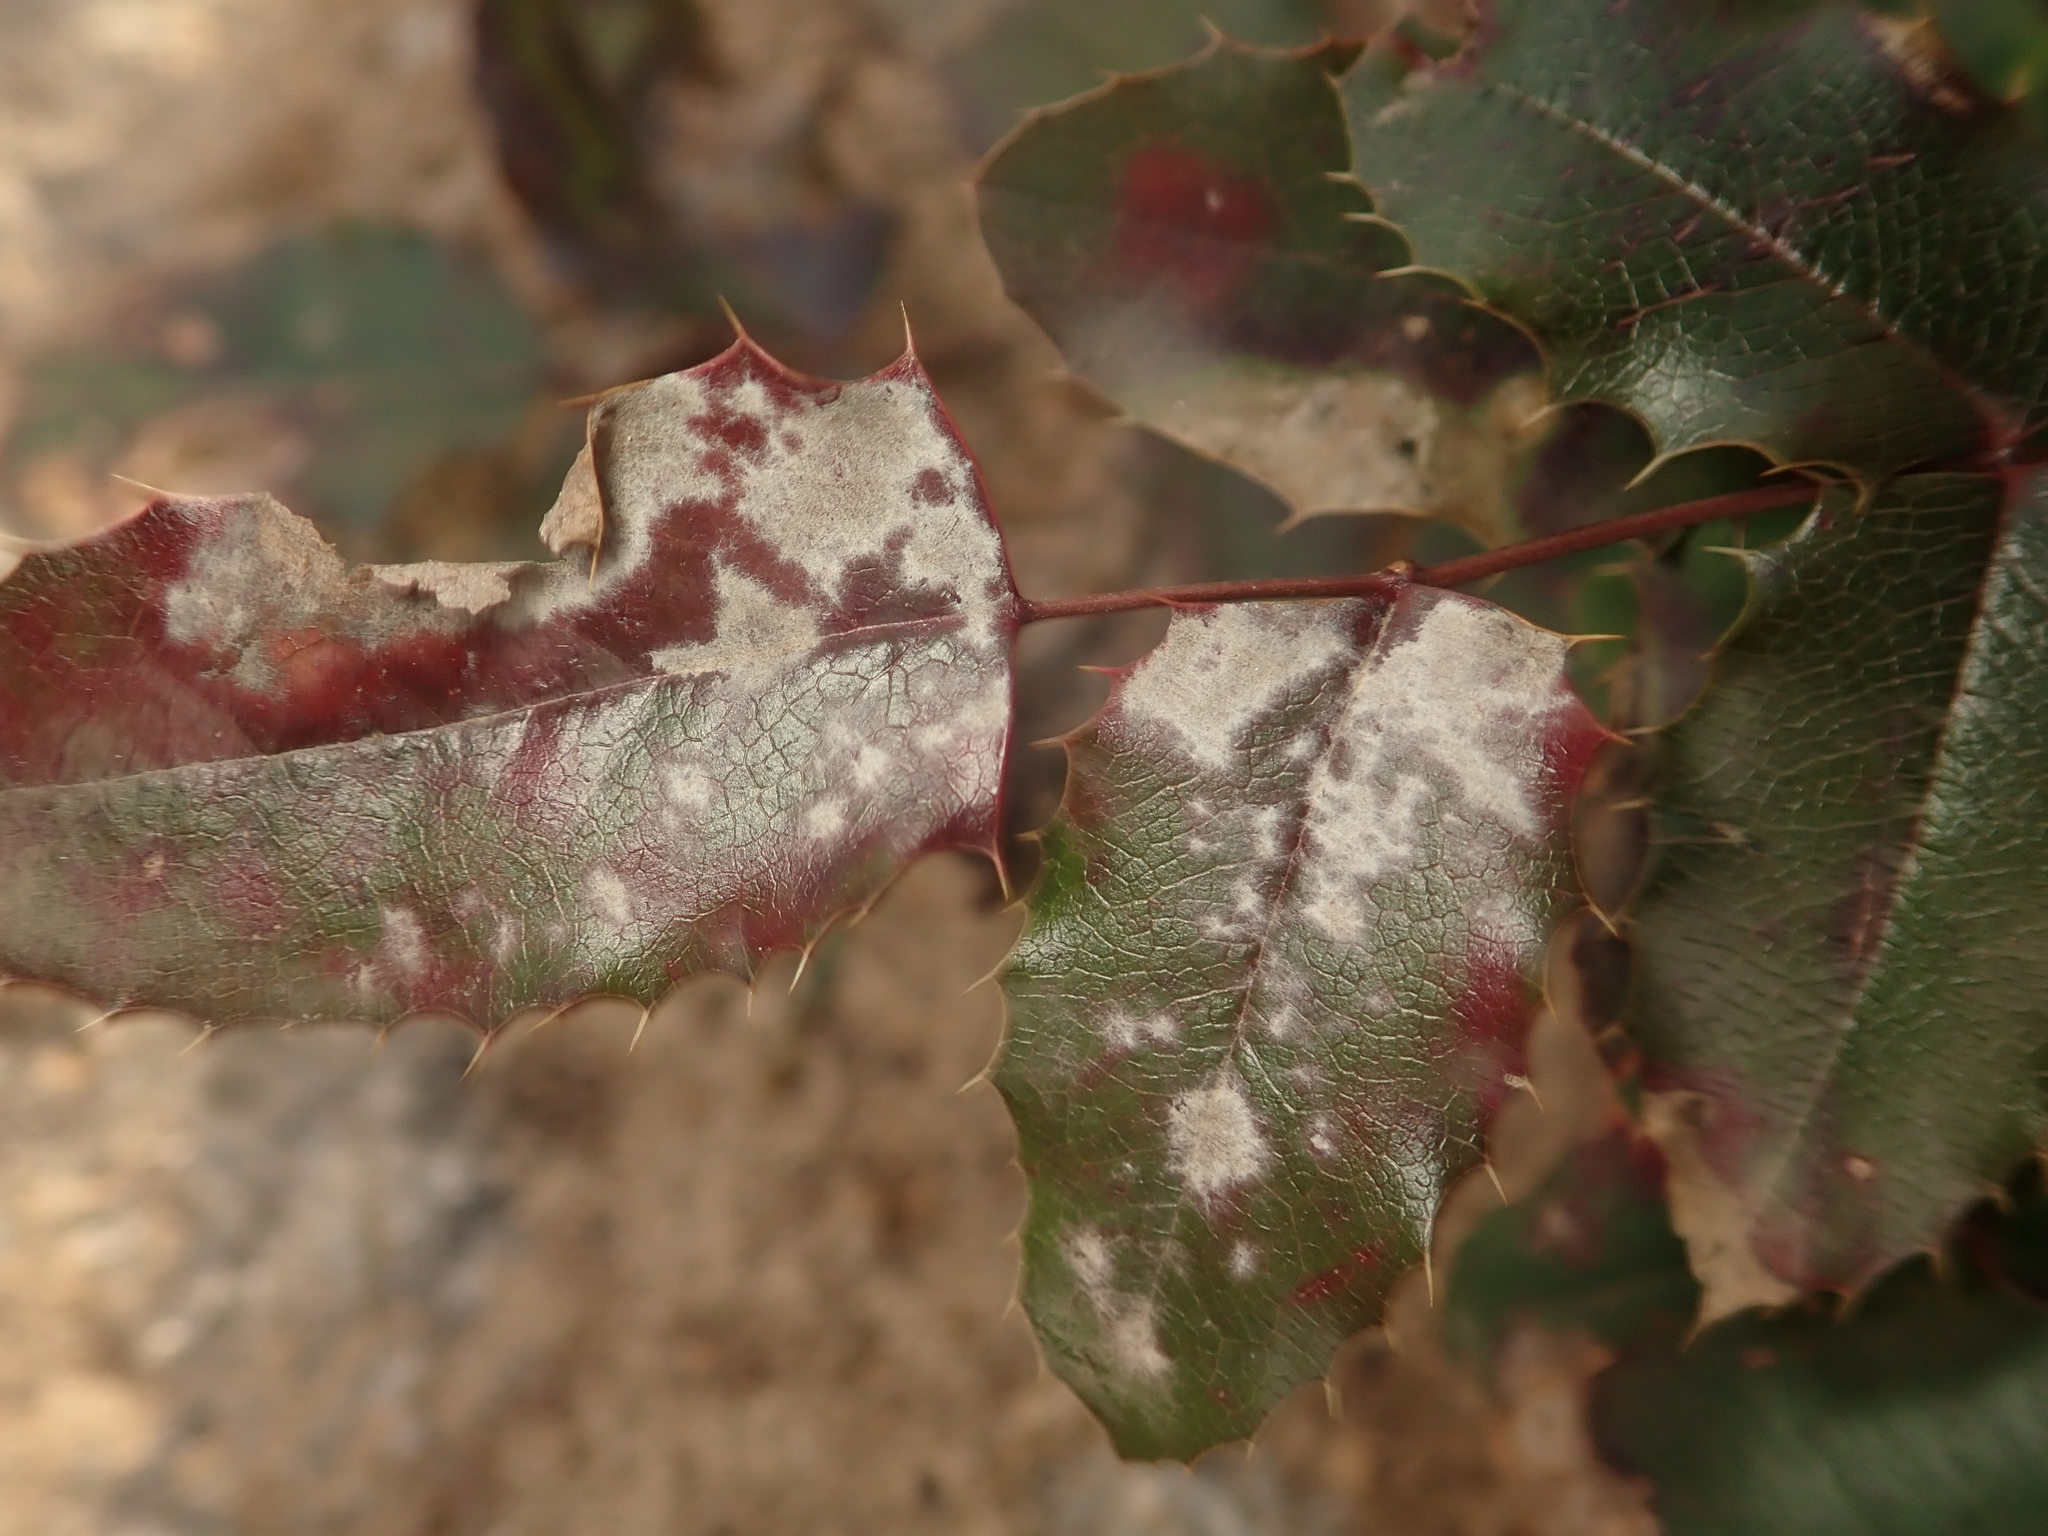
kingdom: Fungi
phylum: Ascomycota
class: Leotiomycetes
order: Helotiales
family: Erysiphaceae
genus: Erysiphe
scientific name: Erysiphe berberidis
